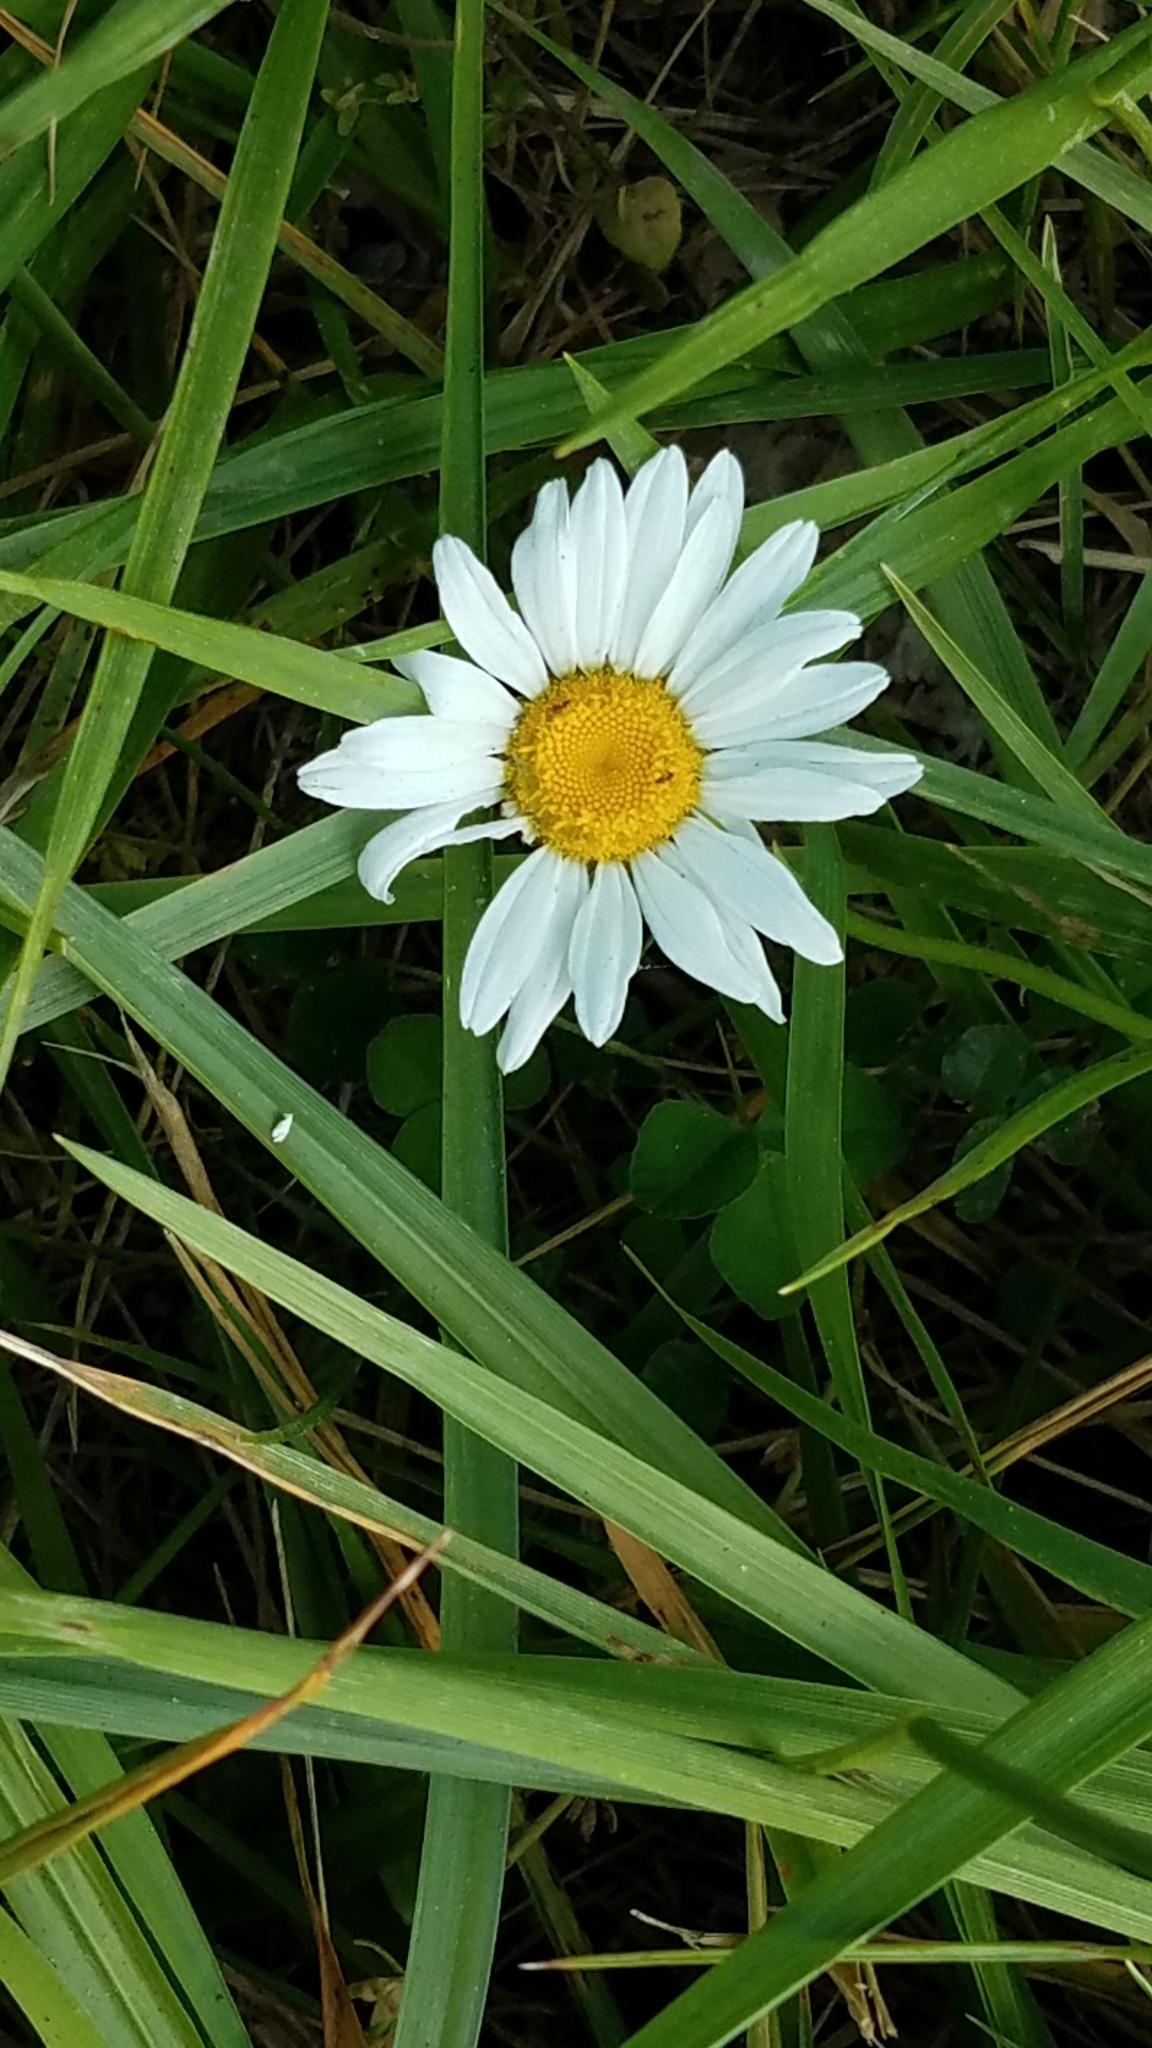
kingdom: Plantae
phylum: Tracheophyta
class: Magnoliopsida
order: Asterales
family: Asteraceae
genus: Leucanthemum
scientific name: Leucanthemum vulgare
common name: Oxeye daisy
